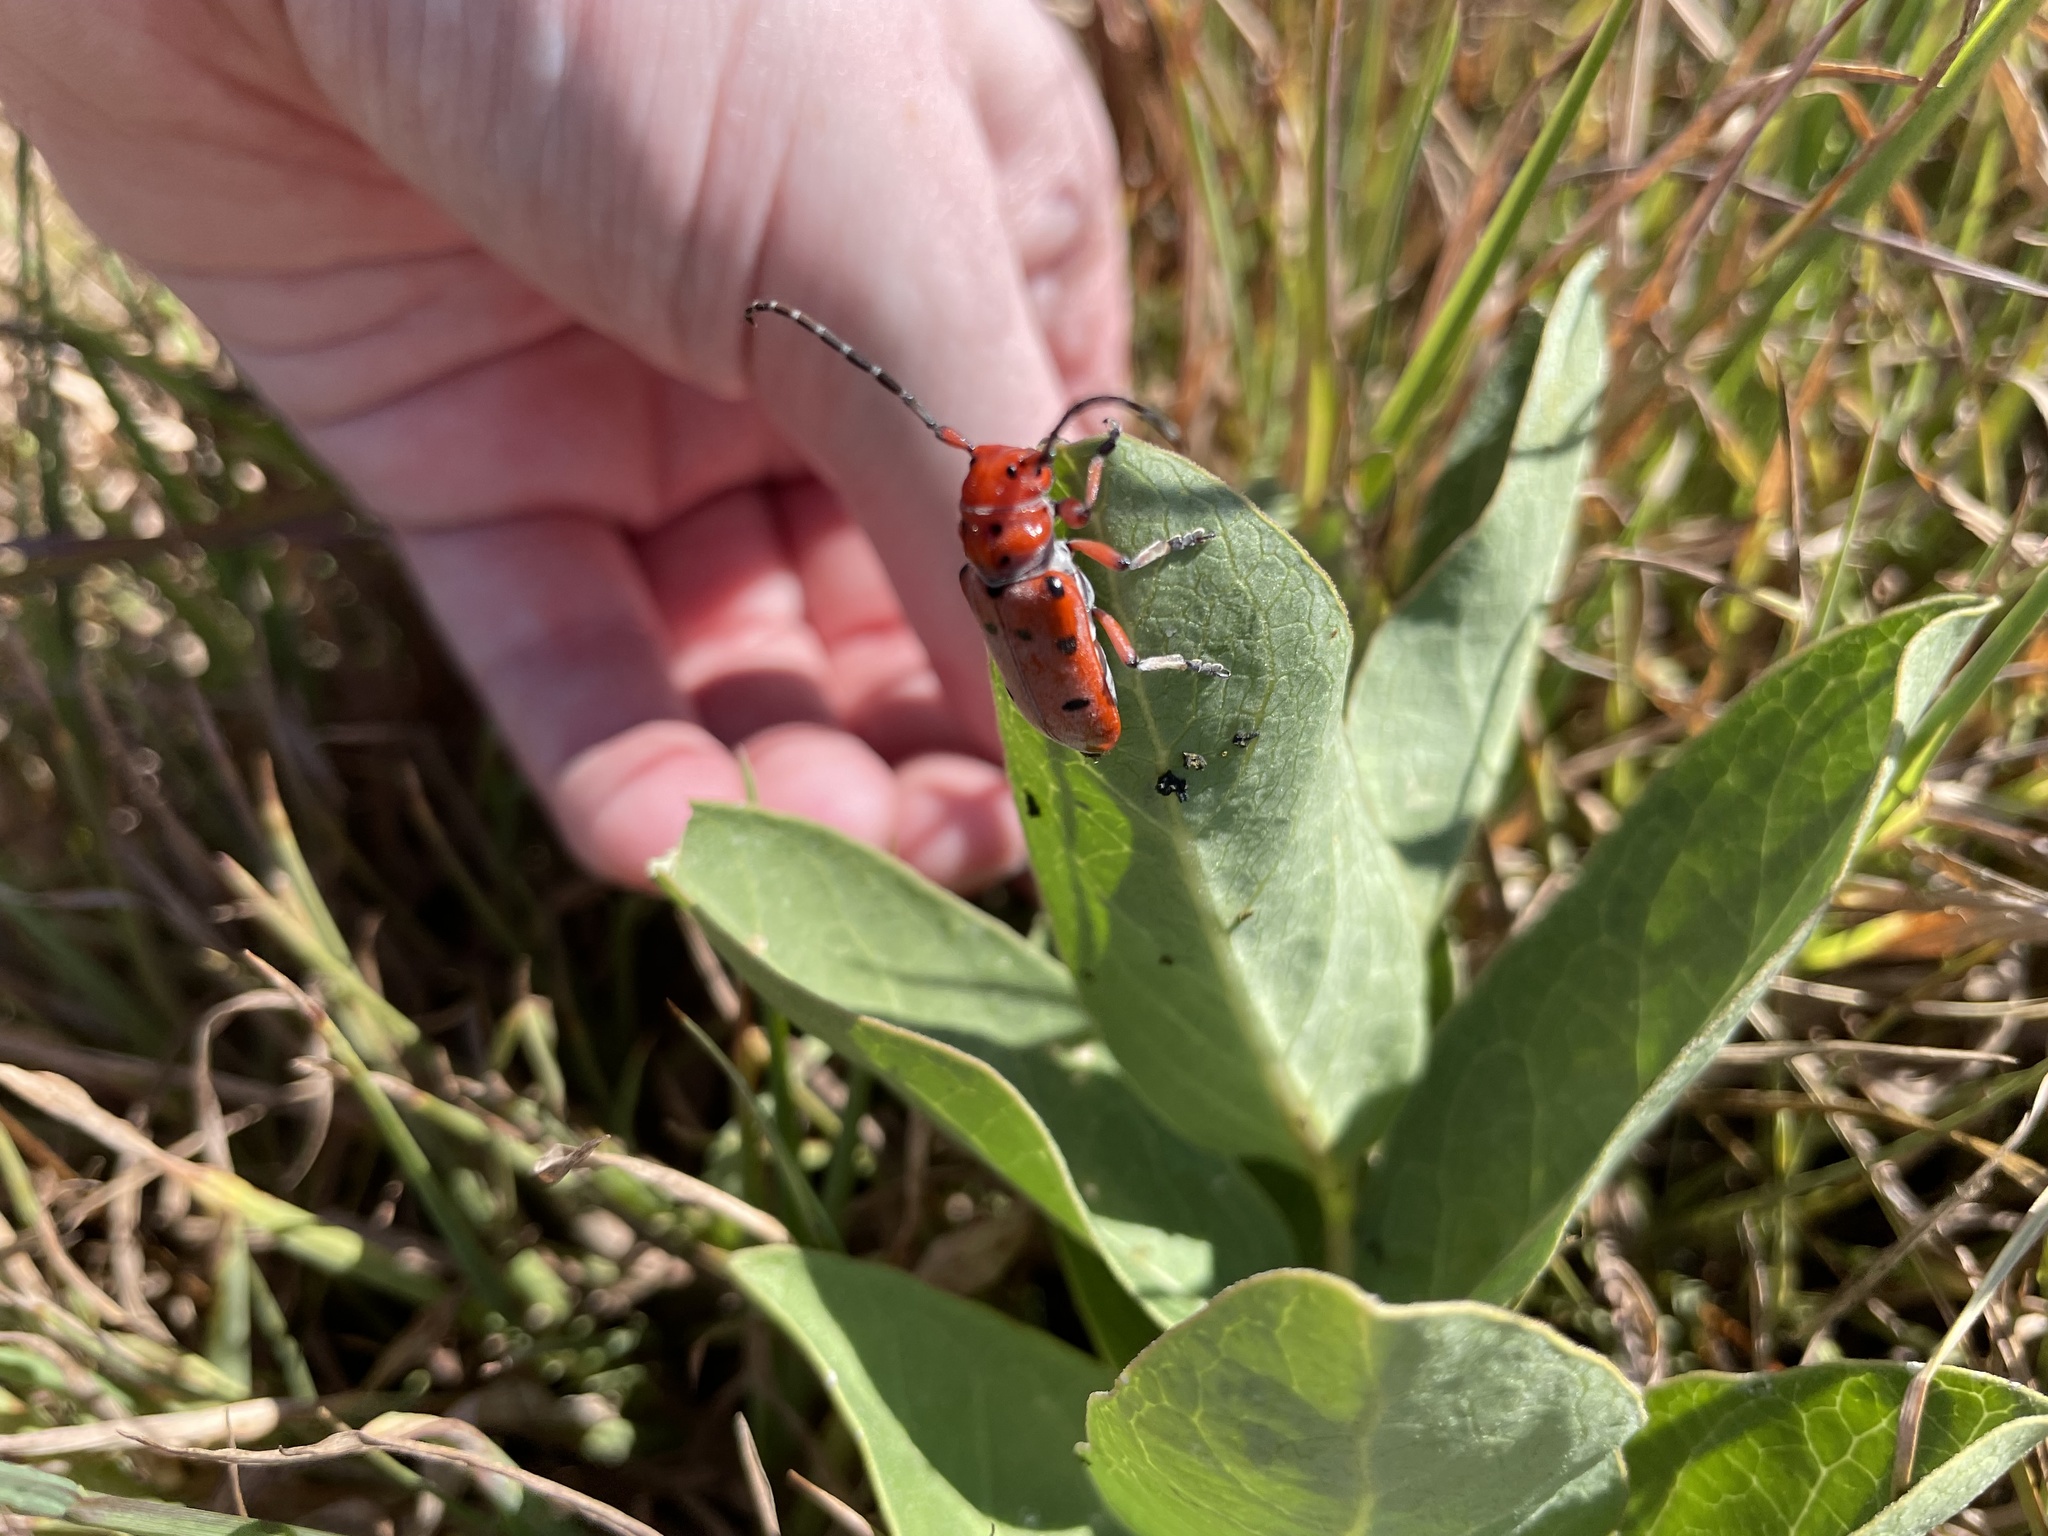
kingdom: Animalia
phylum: Arthropoda
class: Insecta
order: Coleoptera
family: Cerambycidae
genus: Tetraopes
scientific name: Tetraopes femoratus
